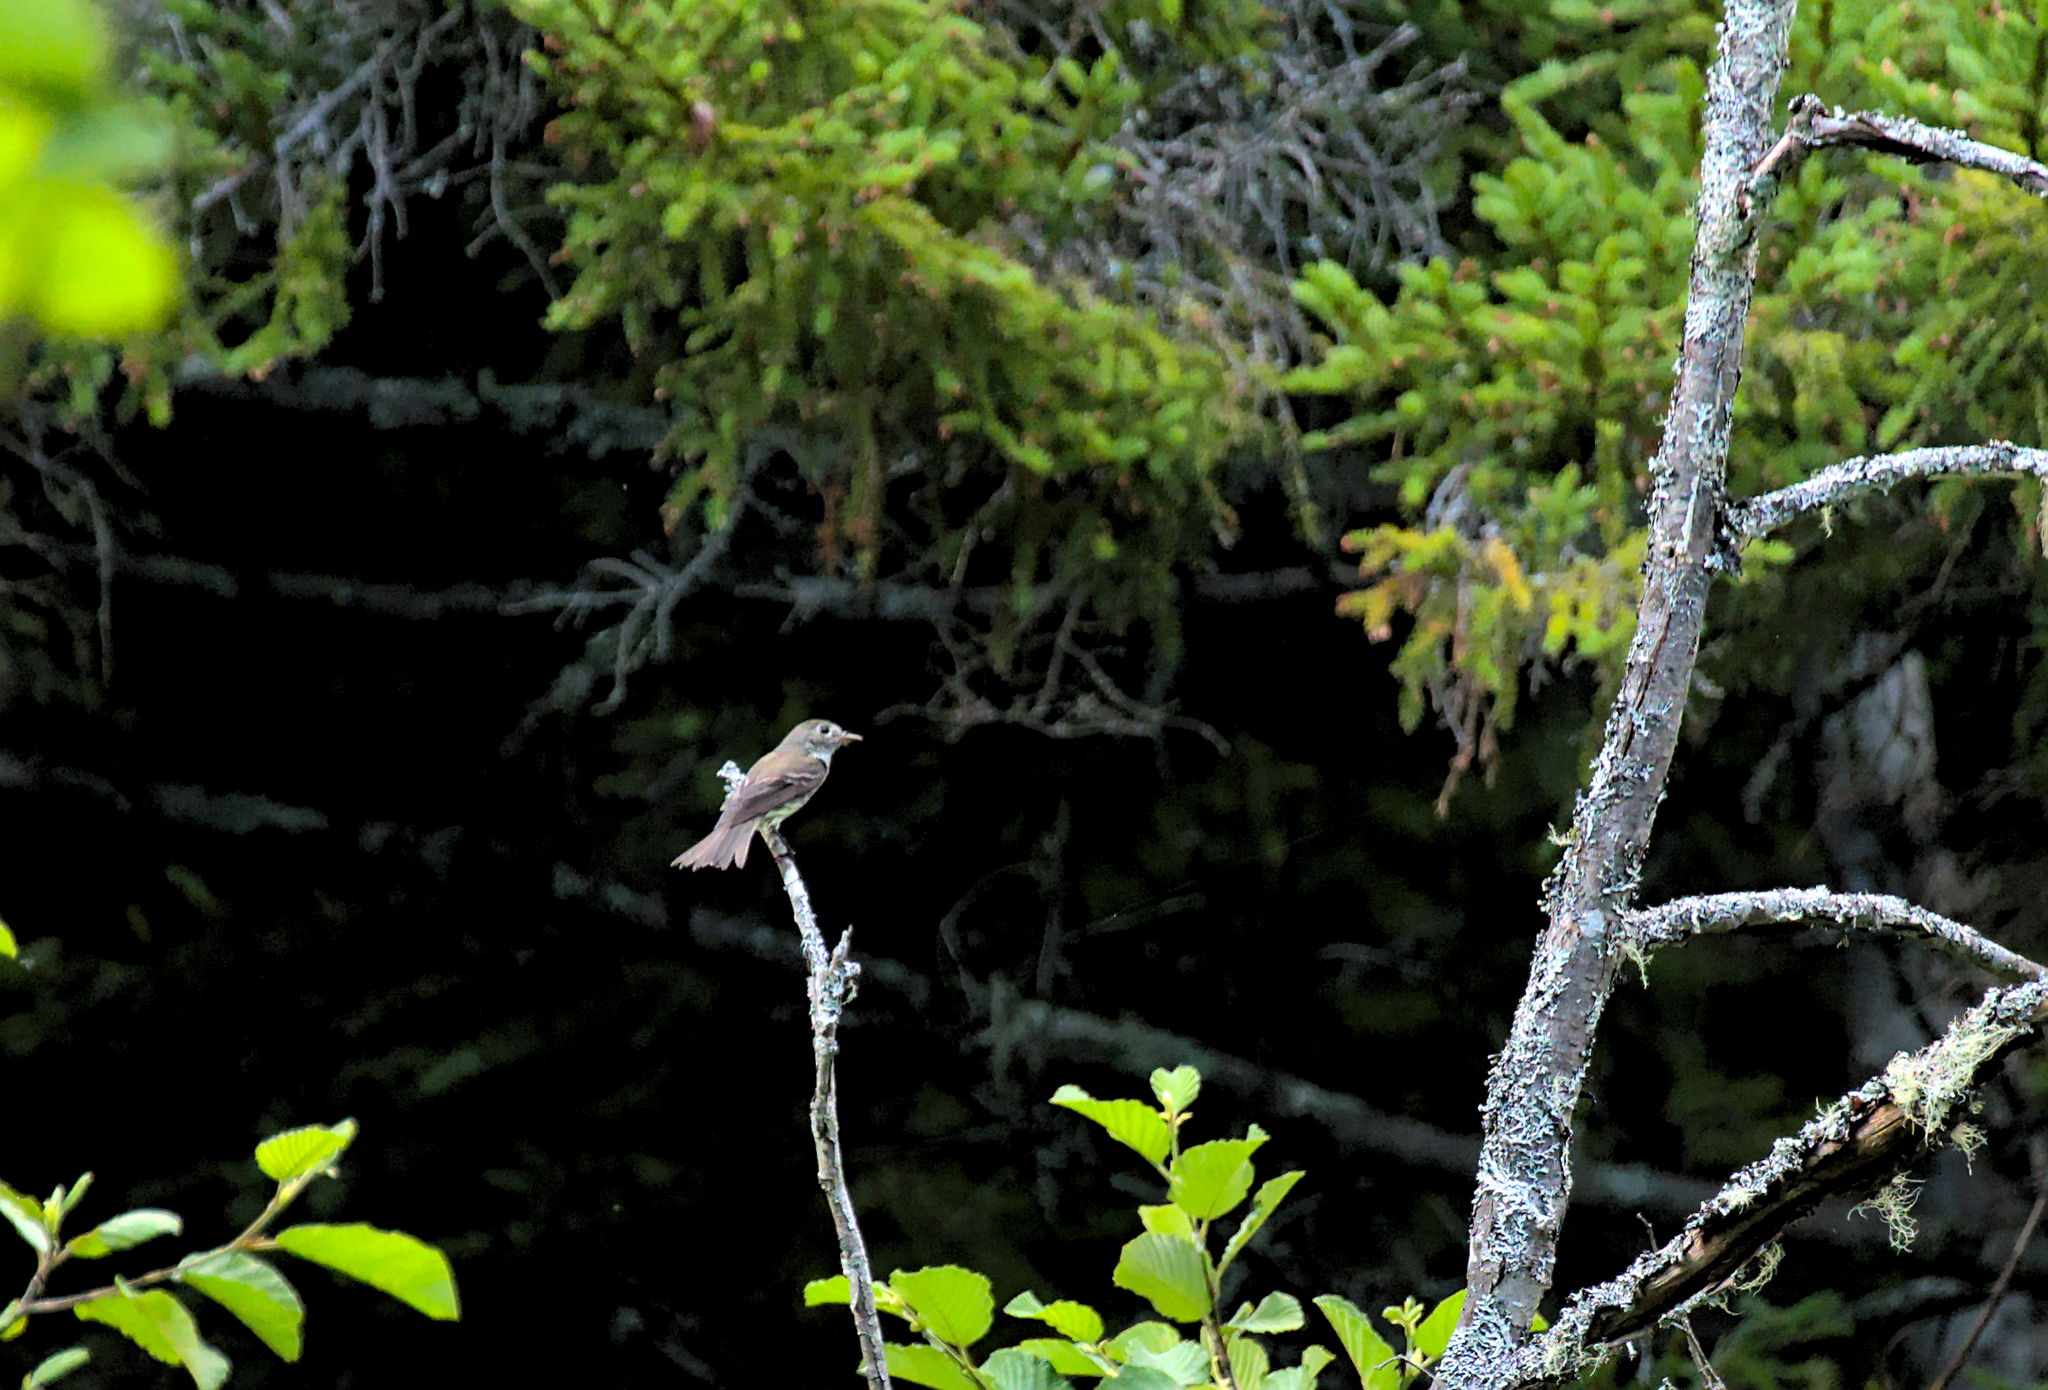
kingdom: Animalia
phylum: Chordata
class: Aves
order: Passeriformes
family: Turdidae
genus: Catharus
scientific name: Catharus ustulatus
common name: Swainson's thrush
